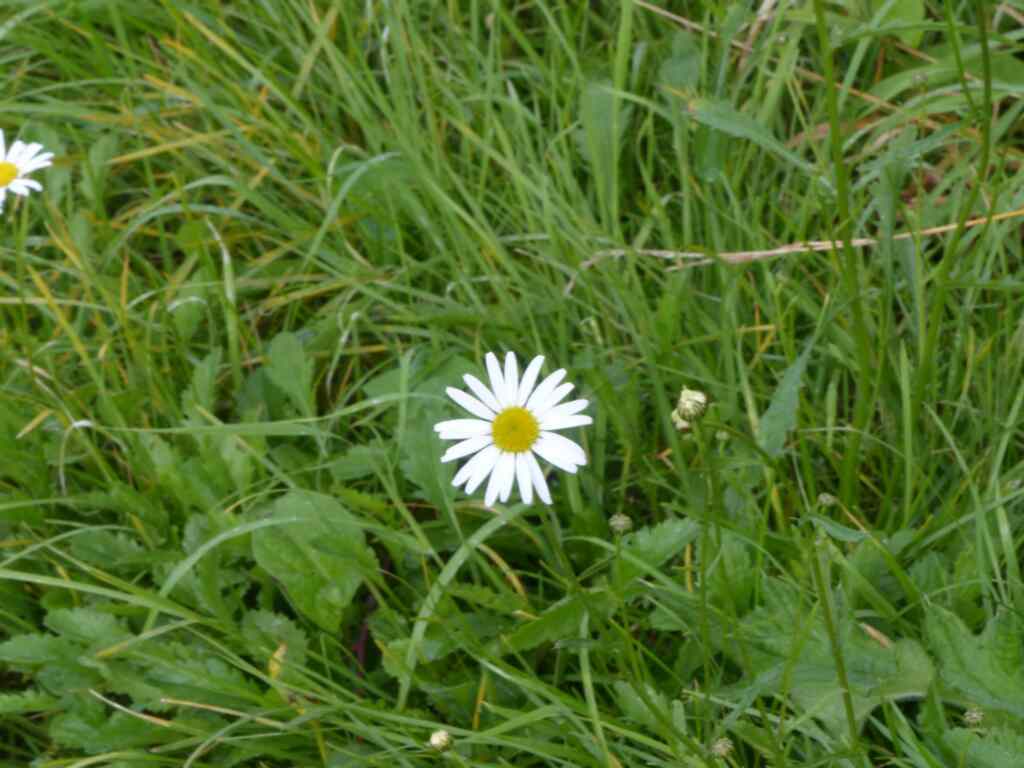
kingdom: Plantae
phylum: Tracheophyta
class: Magnoliopsida
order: Asterales
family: Asteraceae
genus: Leucanthemum
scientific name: Leucanthemum vulgare
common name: Oxeye daisy
